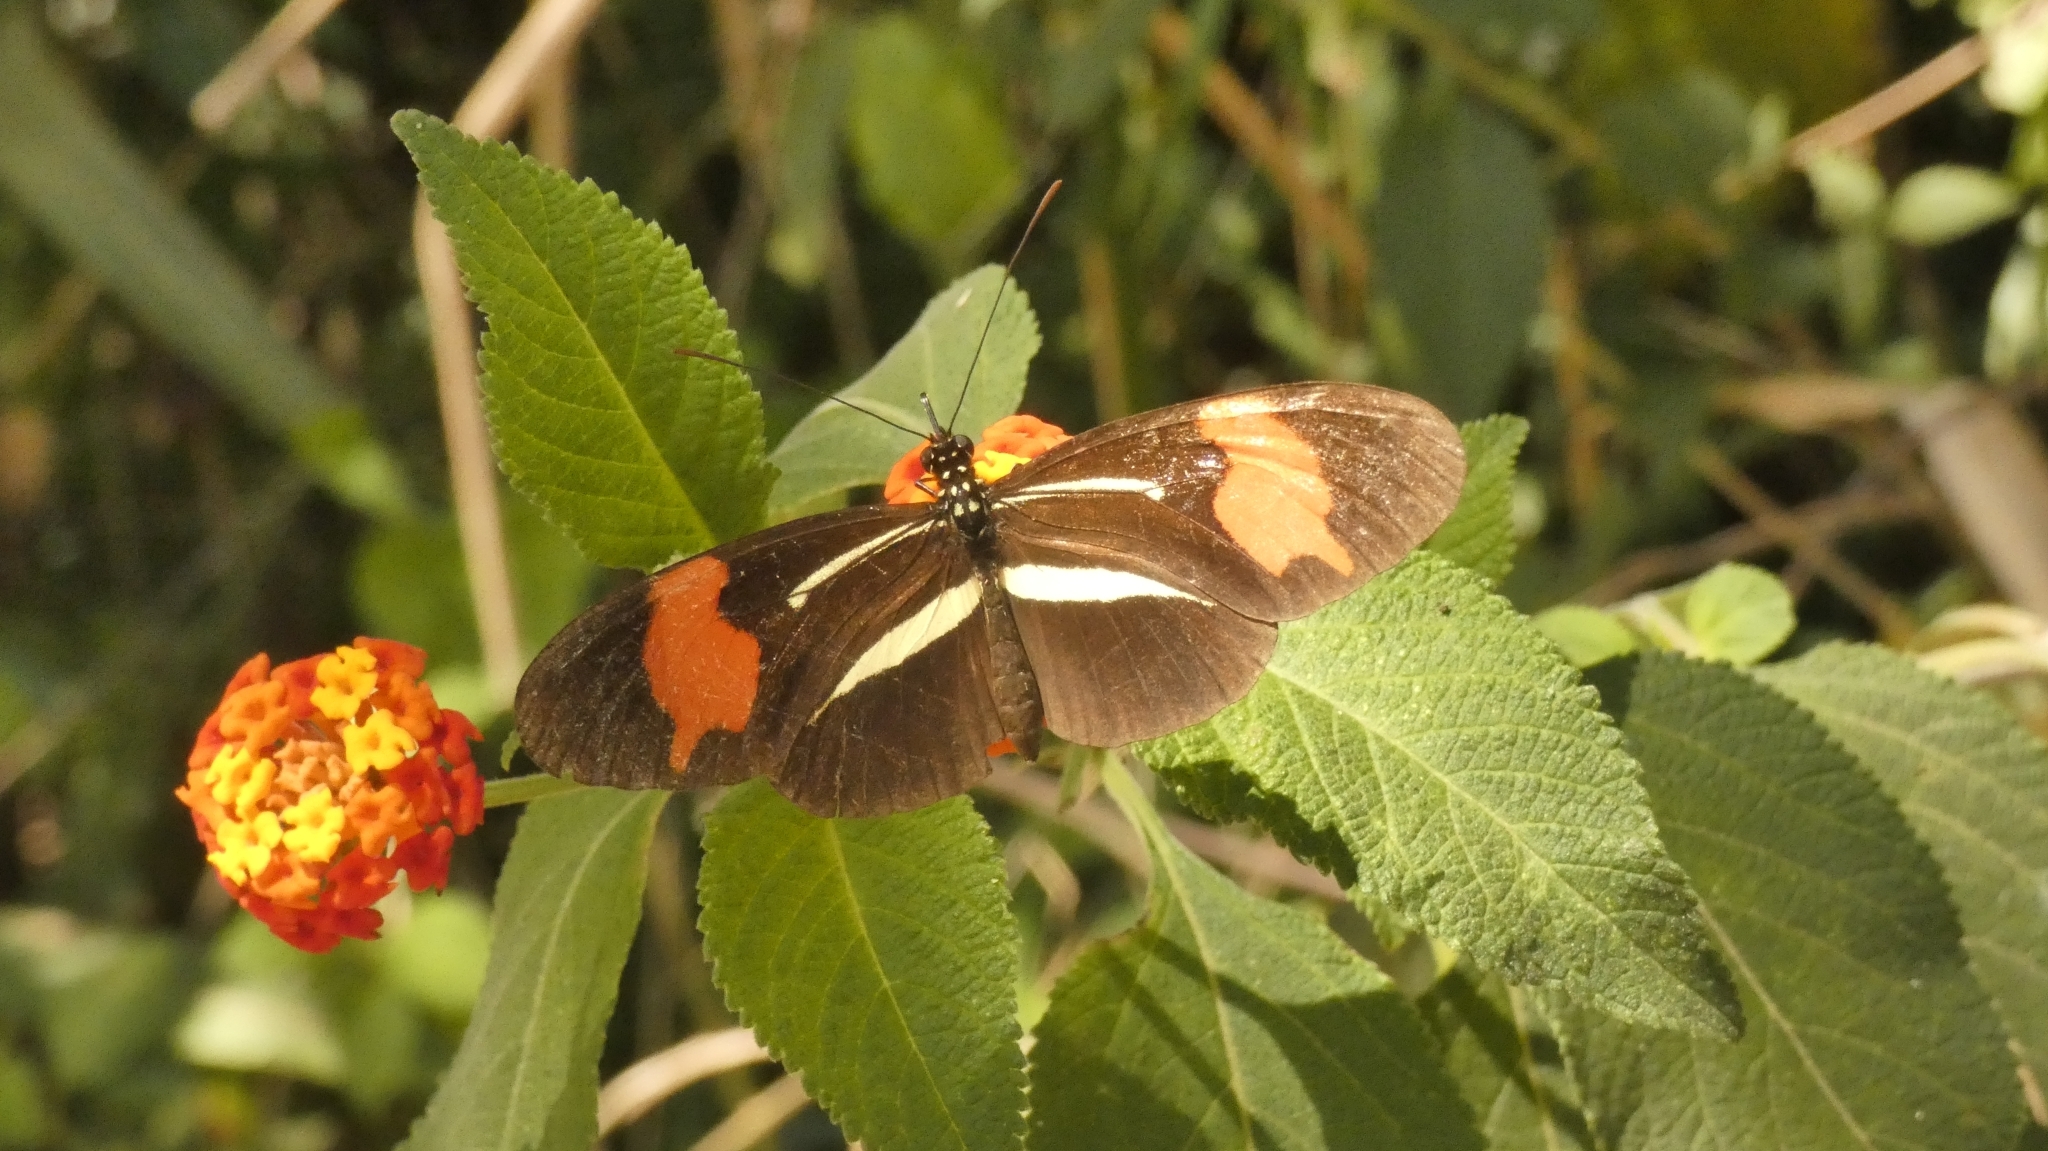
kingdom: Animalia
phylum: Arthropoda
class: Insecta
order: Lepidoptera
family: Nymphalidae
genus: Heliconius
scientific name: Heliconius erato
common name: Common patch longwing
